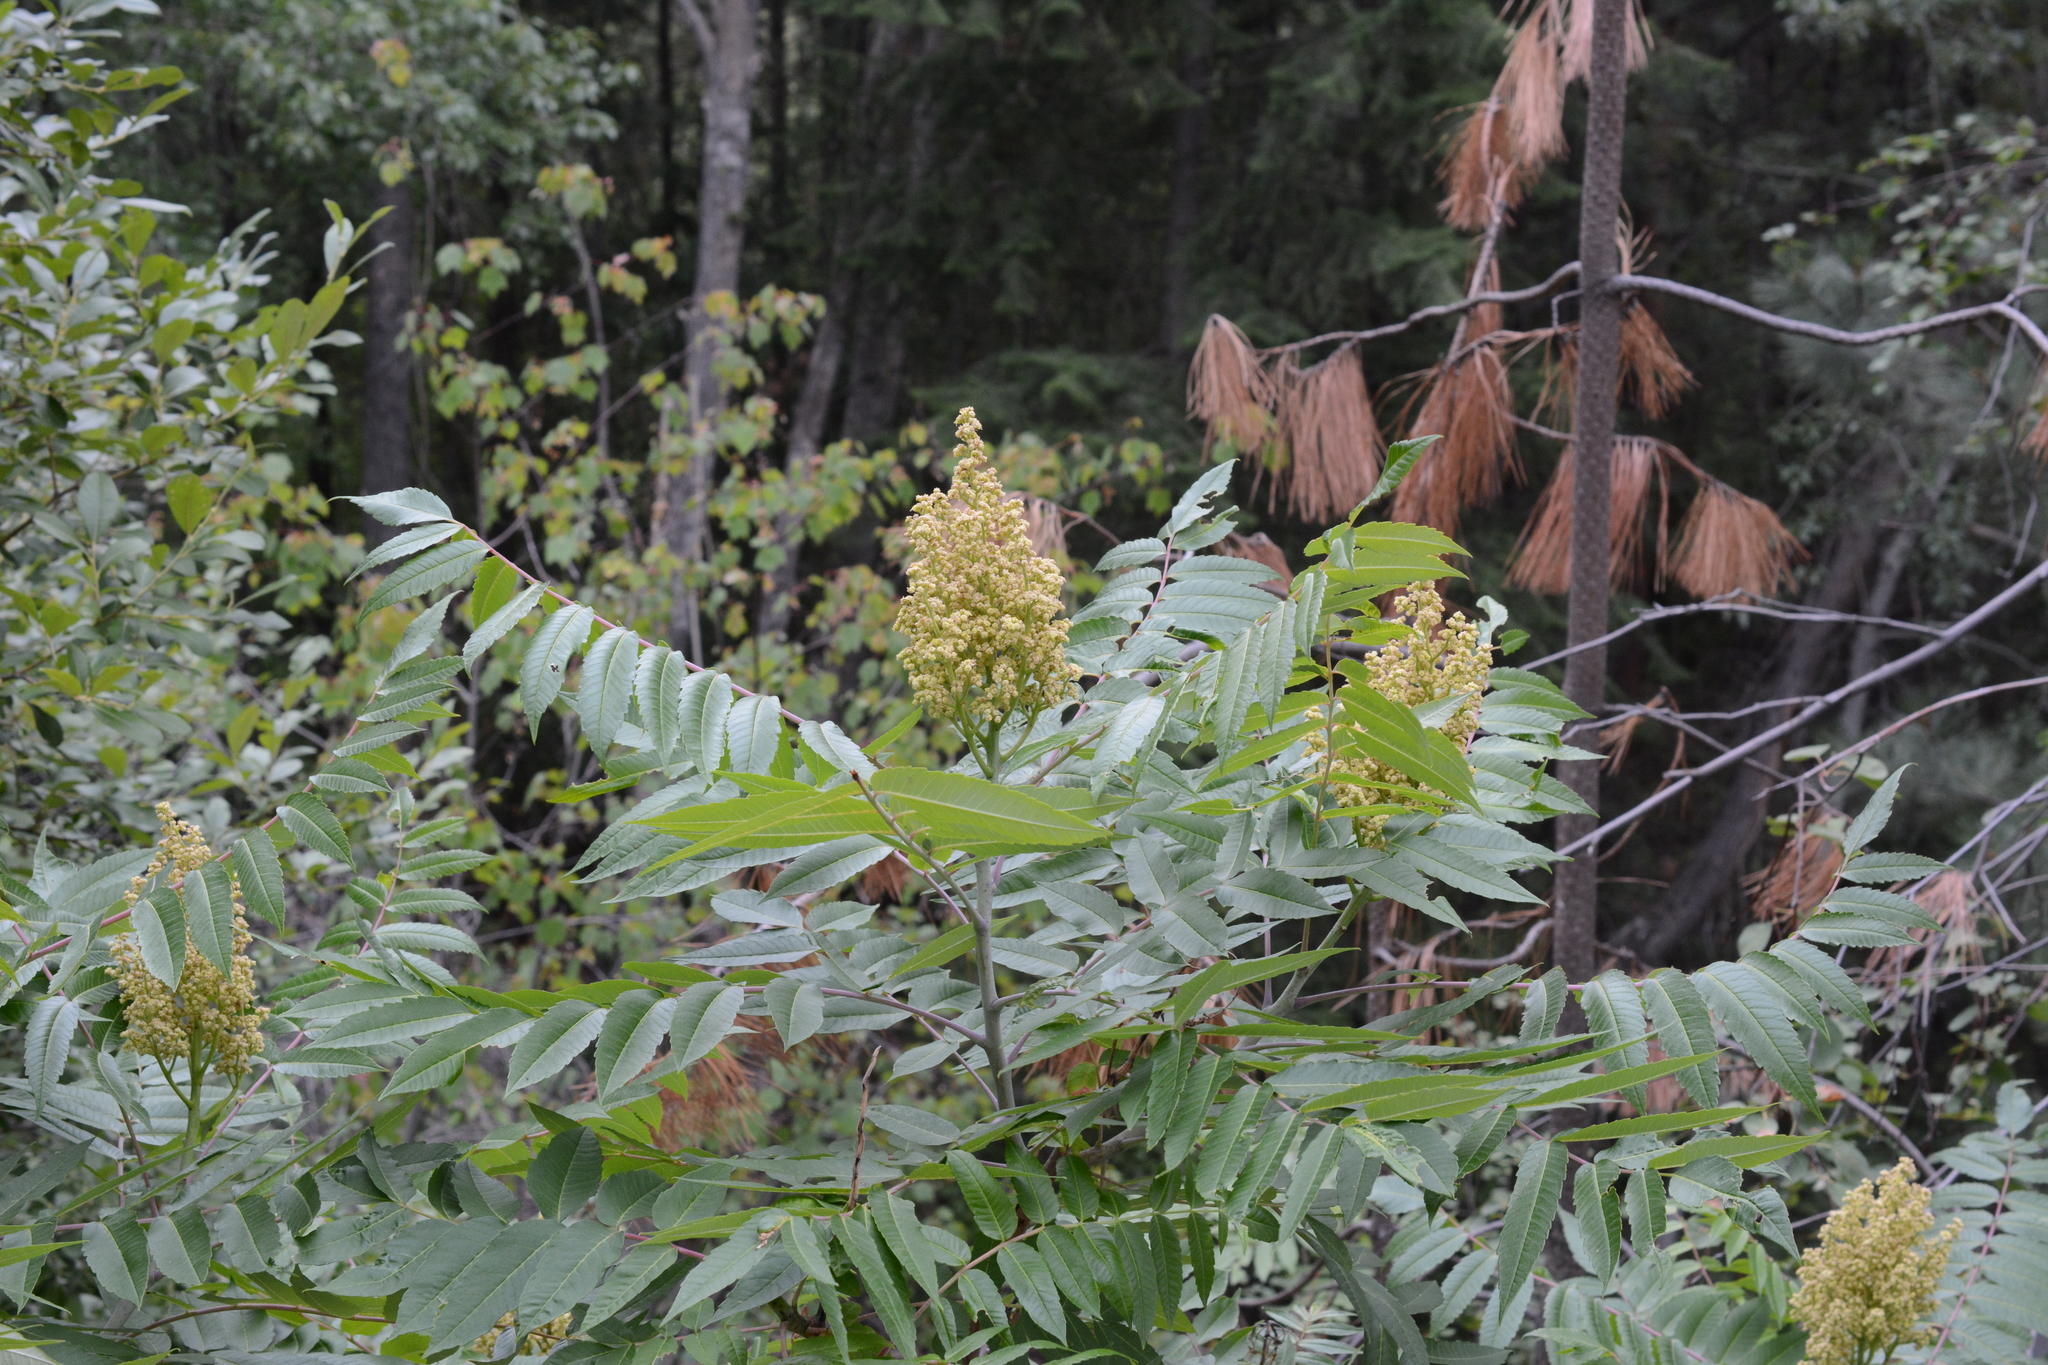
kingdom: Plantae
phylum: Tracheophyta
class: Magnoliopsida
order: Sapindales
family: Anacardiaceae
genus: Rhus
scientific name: Rhus glabra
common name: Scarlet sumac
